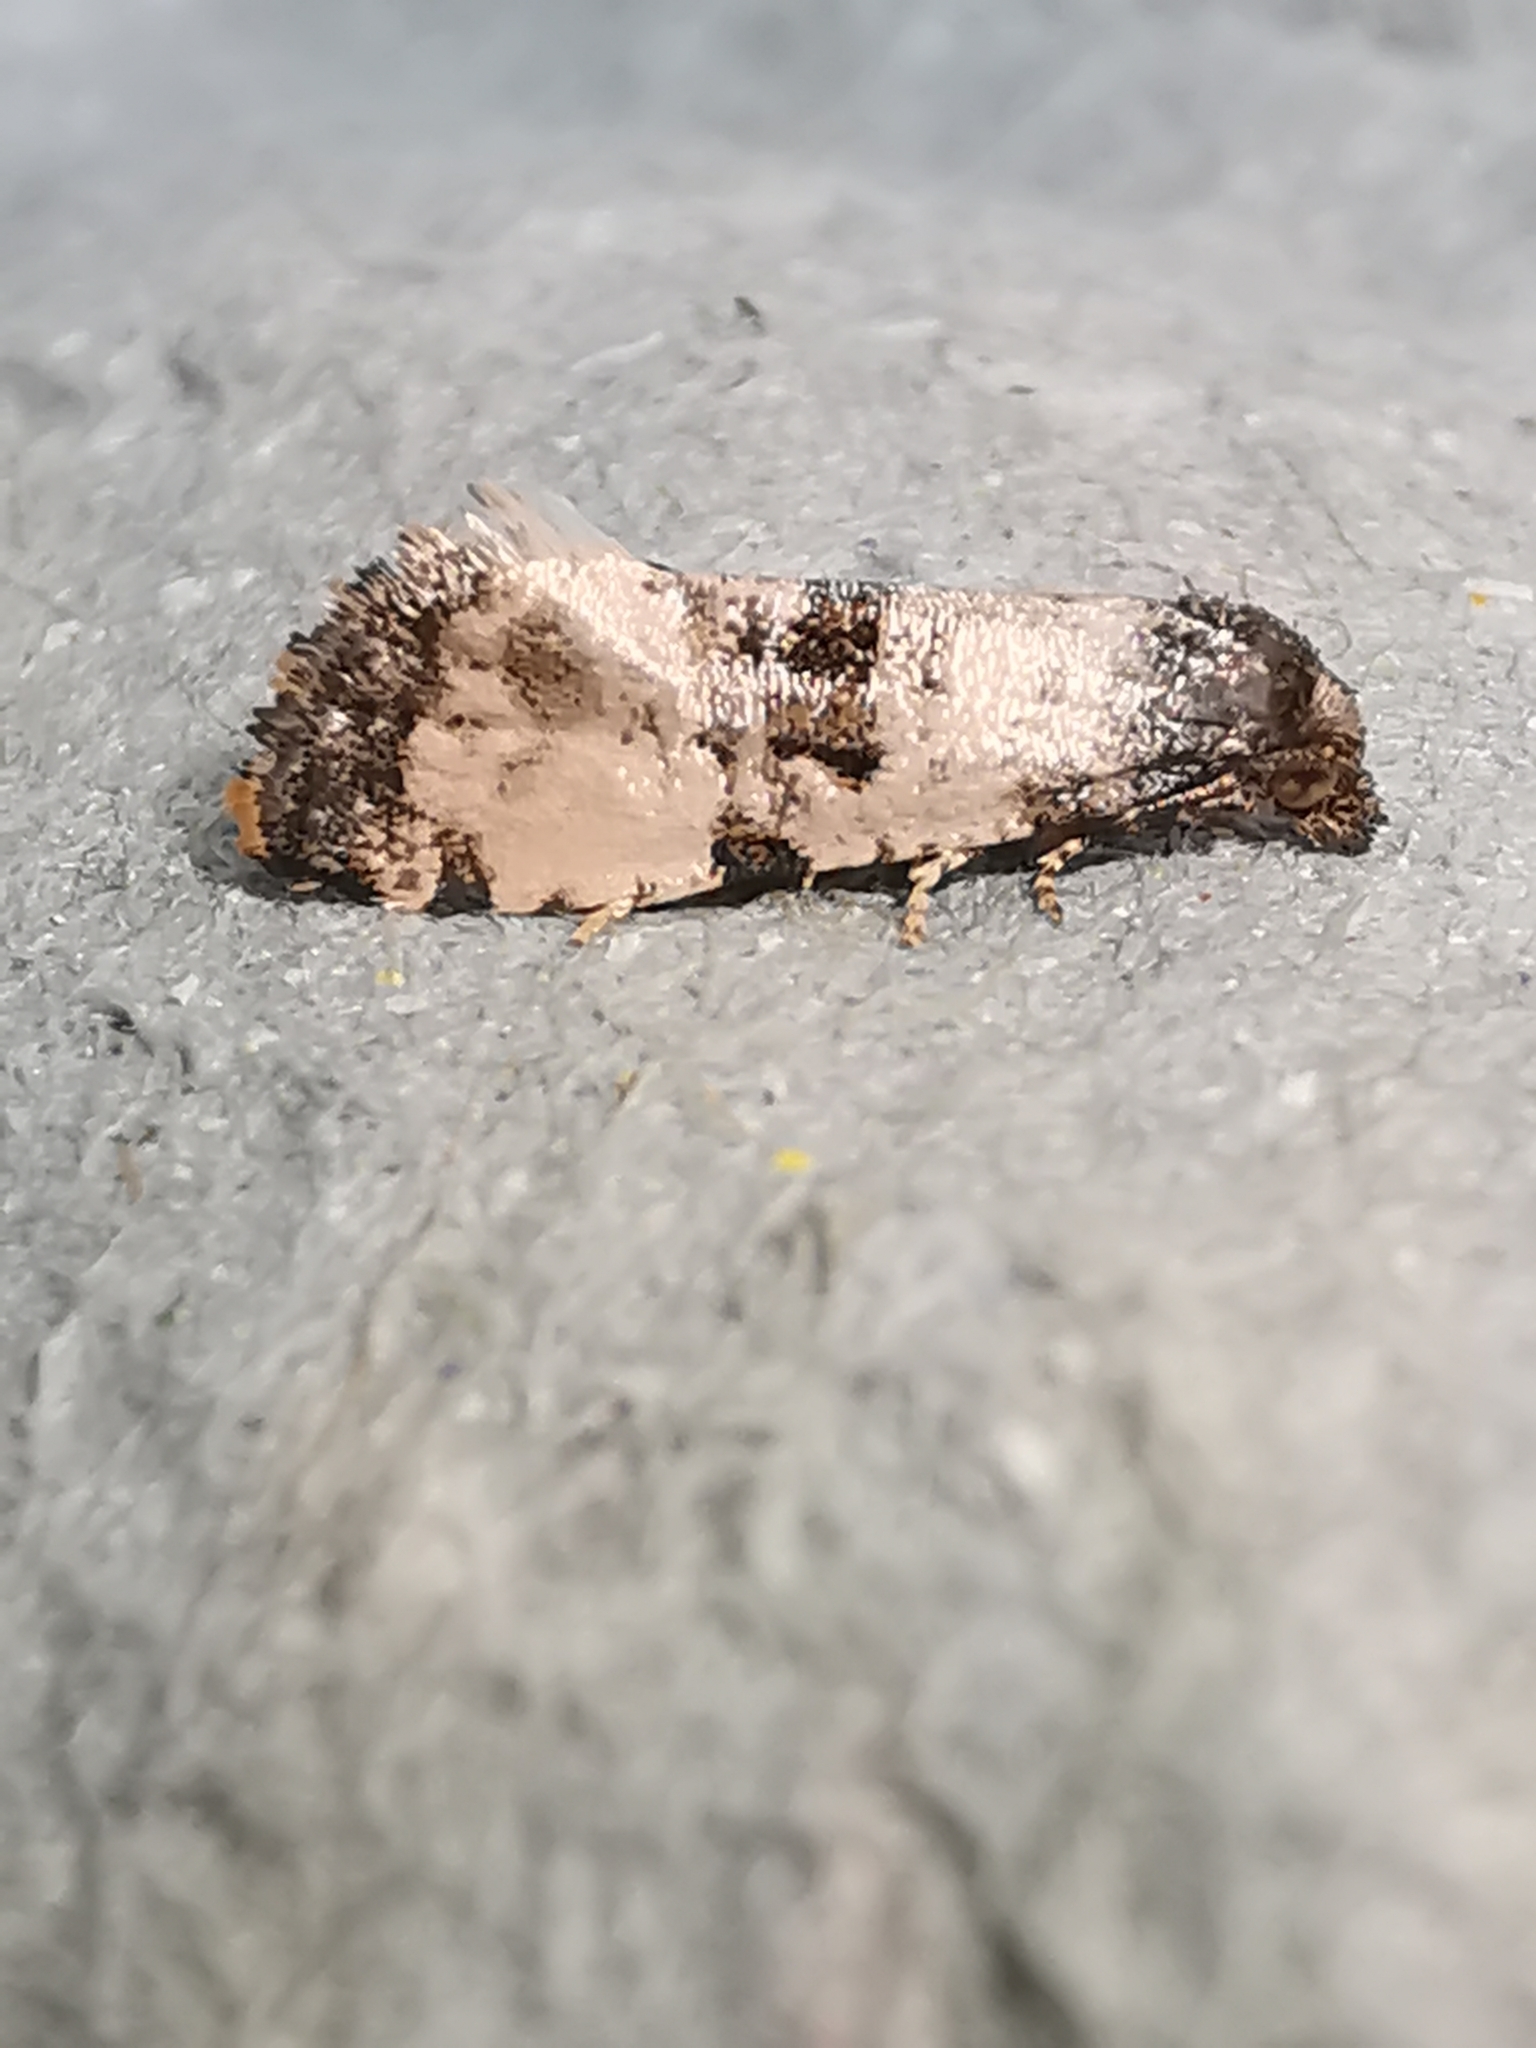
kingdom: Animalia
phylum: Arthropoda
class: Insecta
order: Lepidoptera
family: Tortricidae
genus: Cochylis
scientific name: Cochylis atricapitana
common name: Tortricid moth
